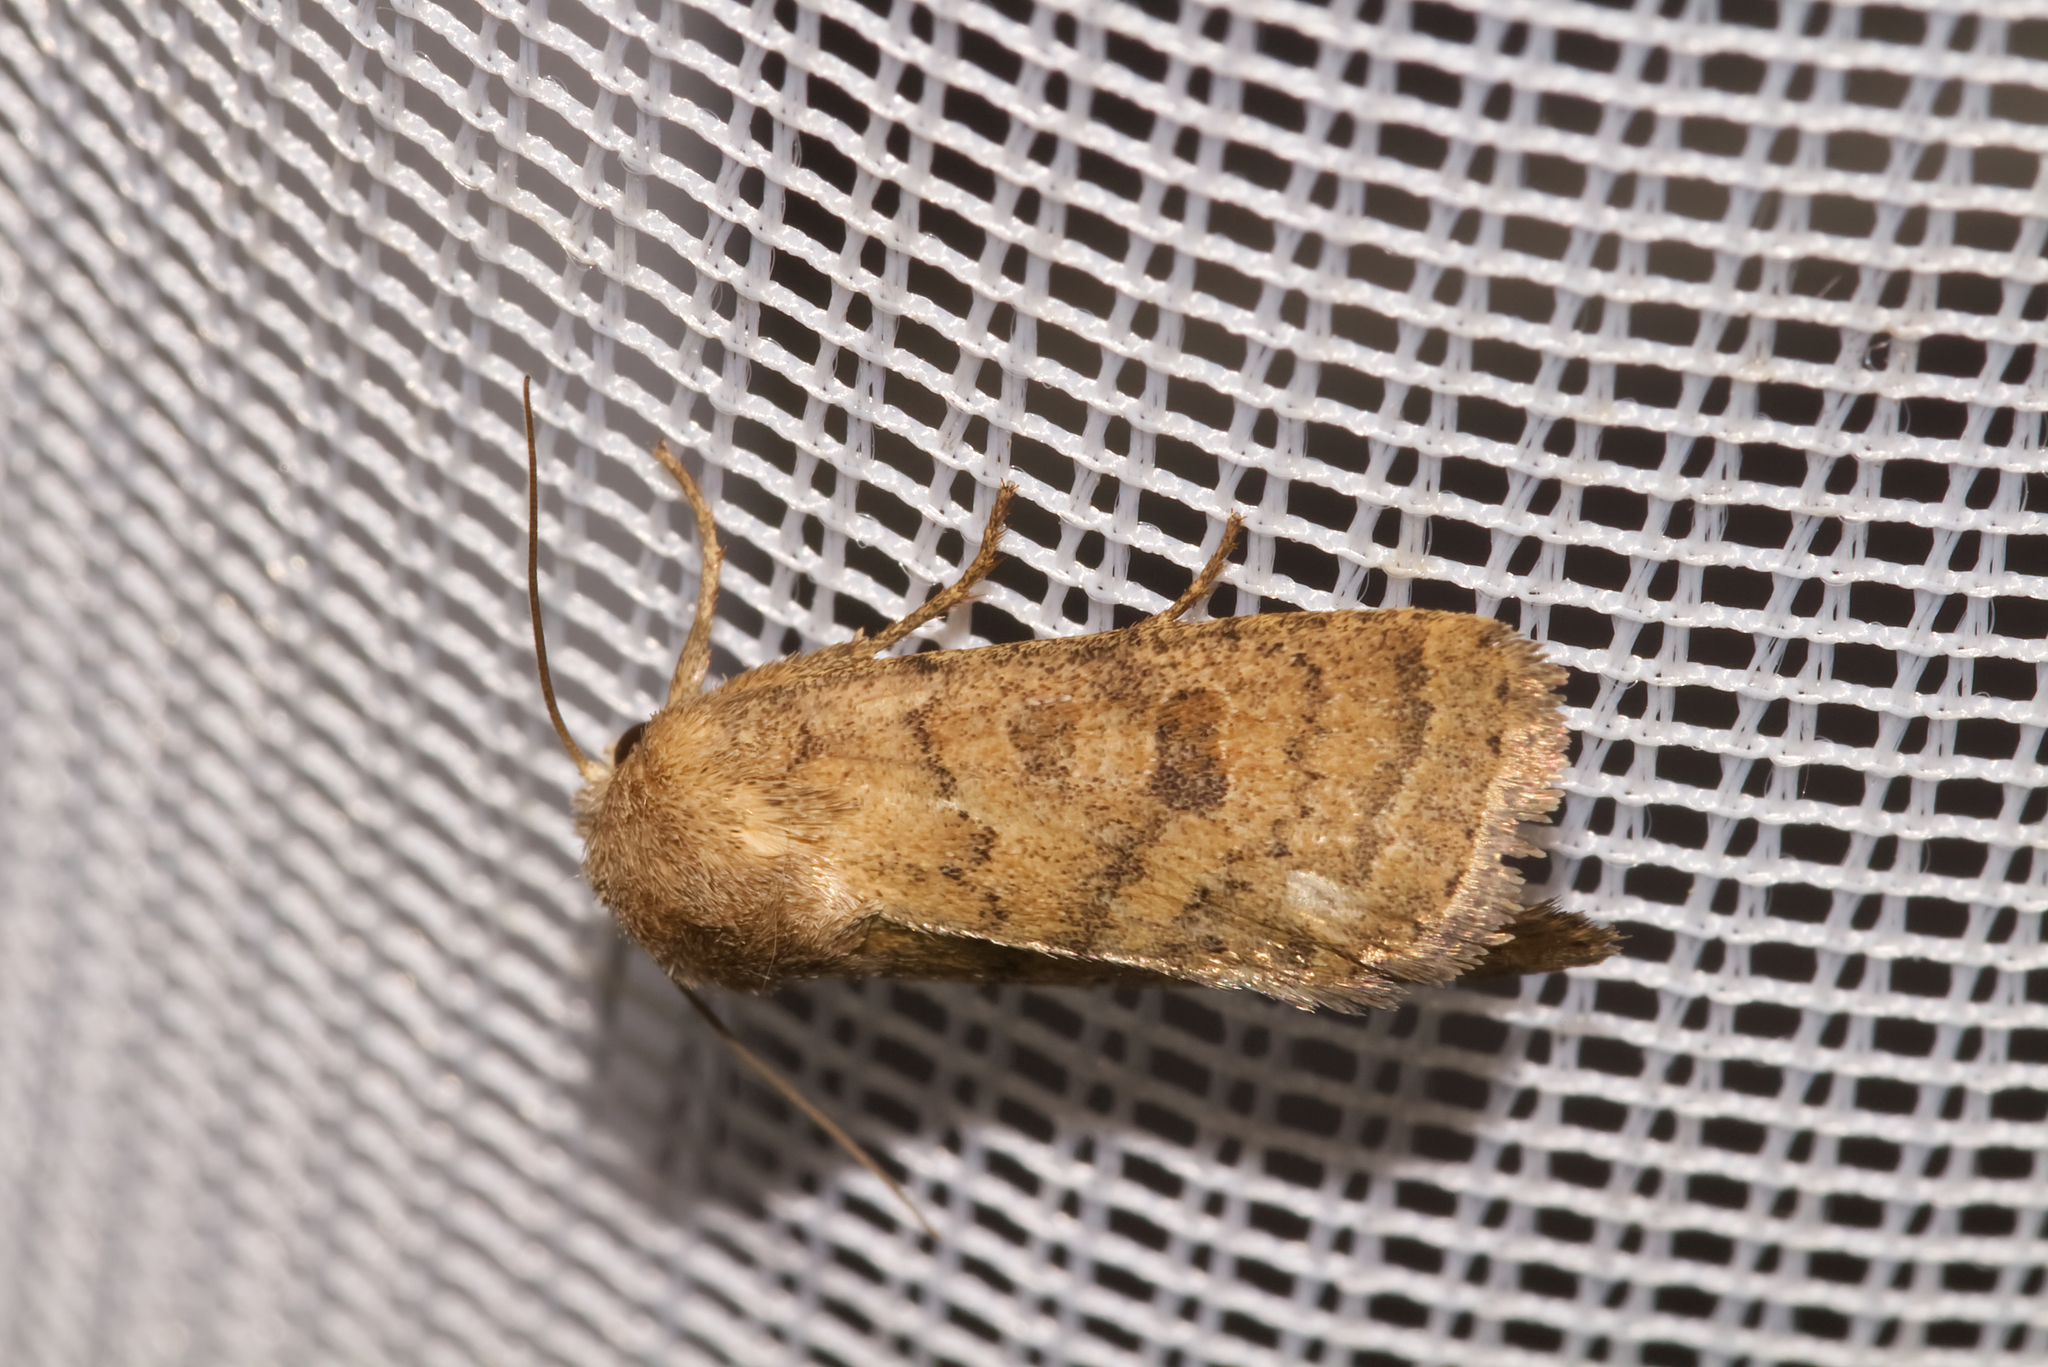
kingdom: Animalia
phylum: Arthropoda
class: Insecta
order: Lepidoptera
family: Noctuidae
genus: Hoplodrina
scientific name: Hoplodrina octogenaria
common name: Uncertain
